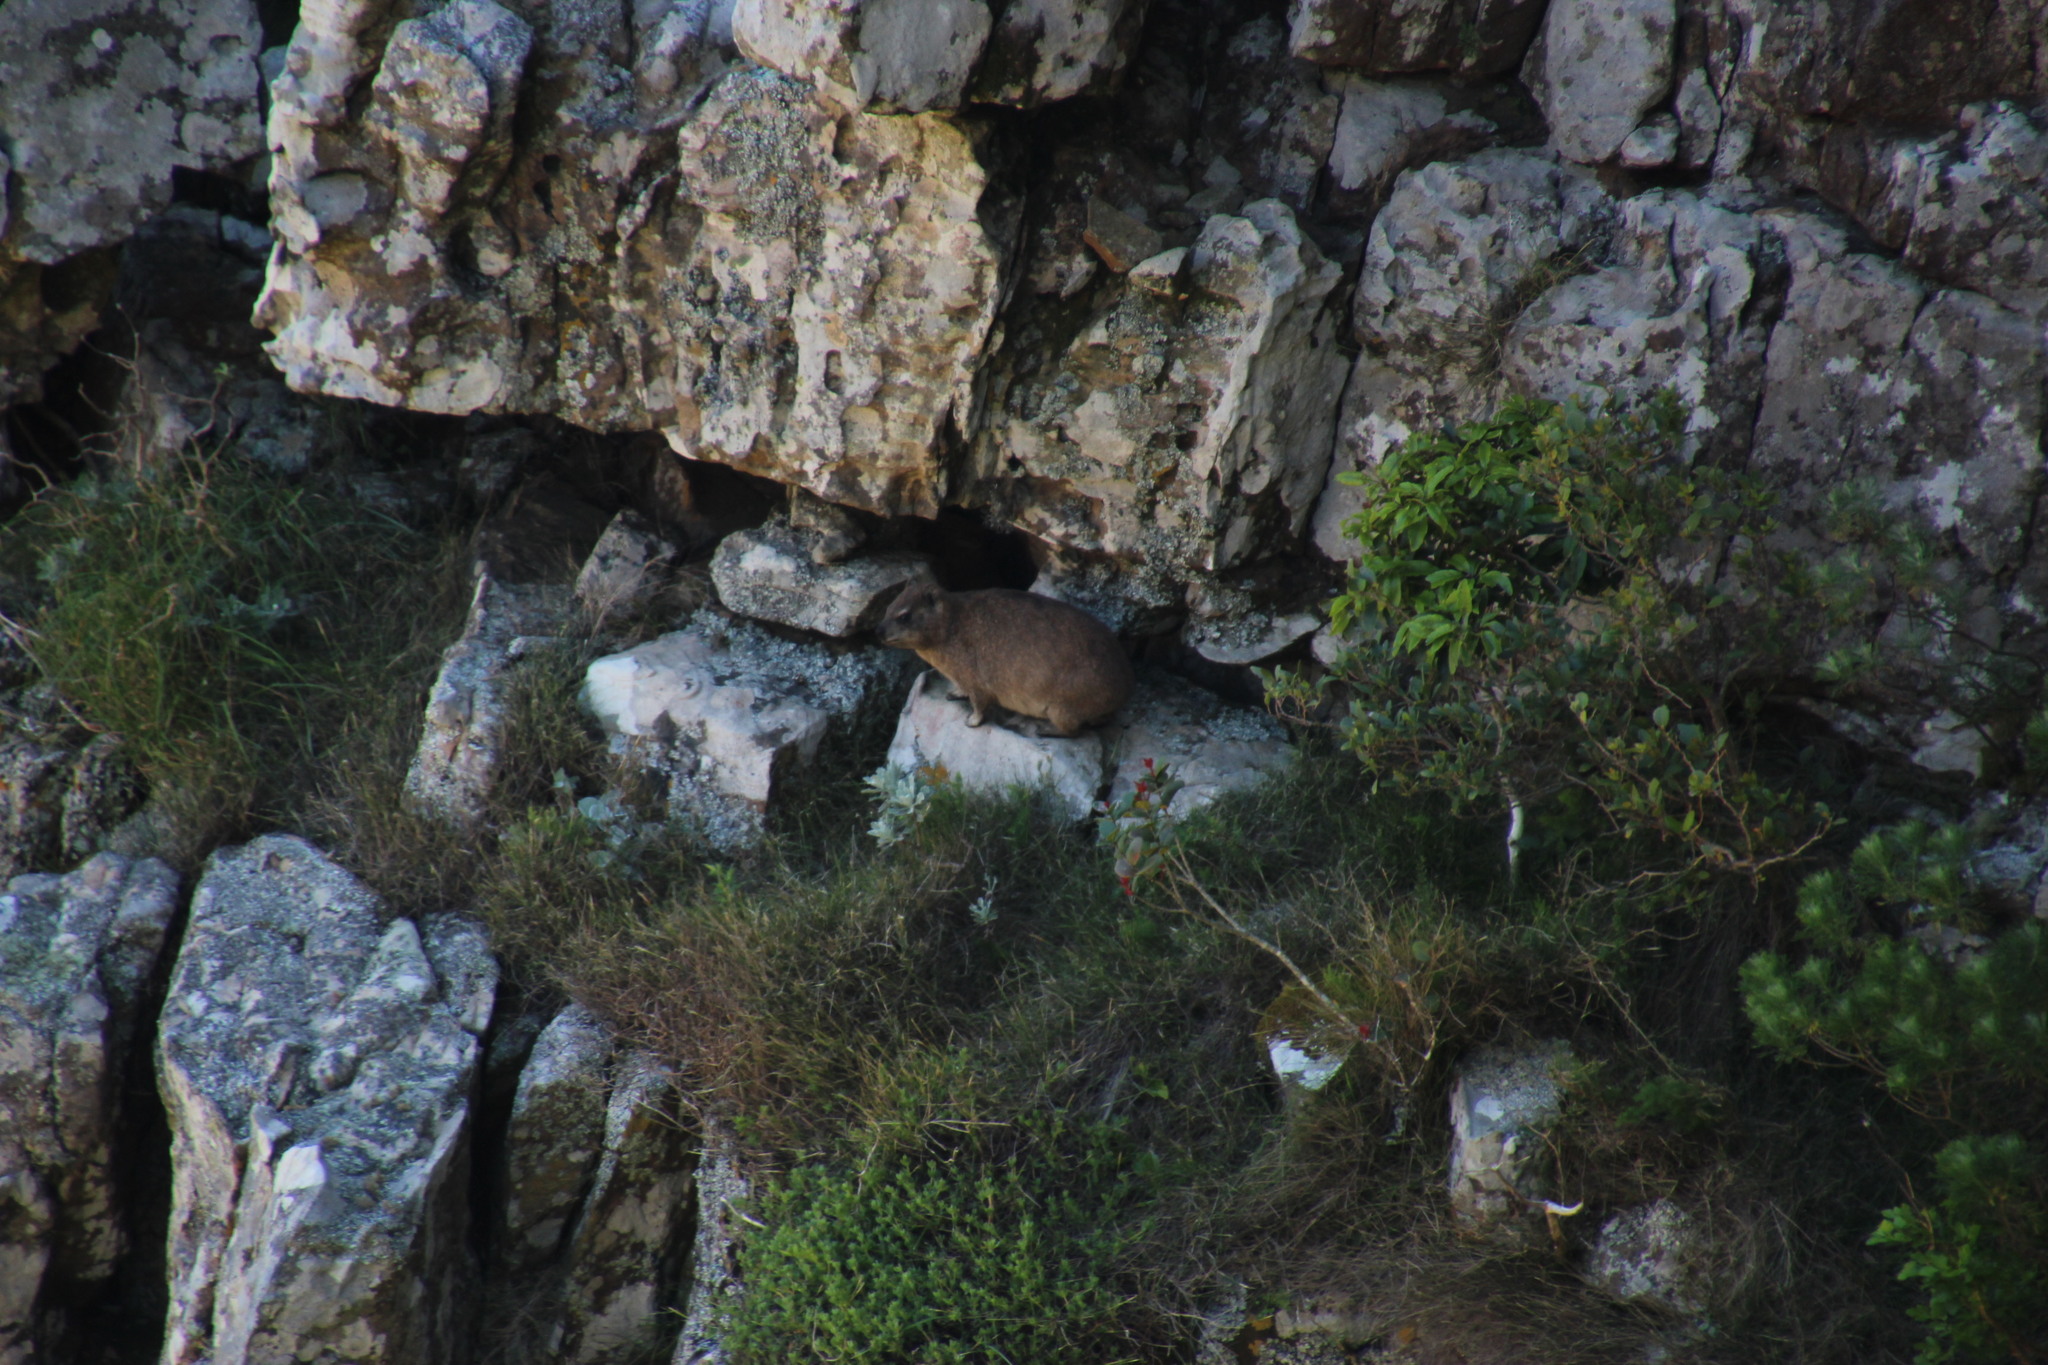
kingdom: Animalia
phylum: Chordata
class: Mammalia
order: Hyracoidea
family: Procaviidae
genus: Procavia
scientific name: Procavia capensis
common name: Rock hyrax
